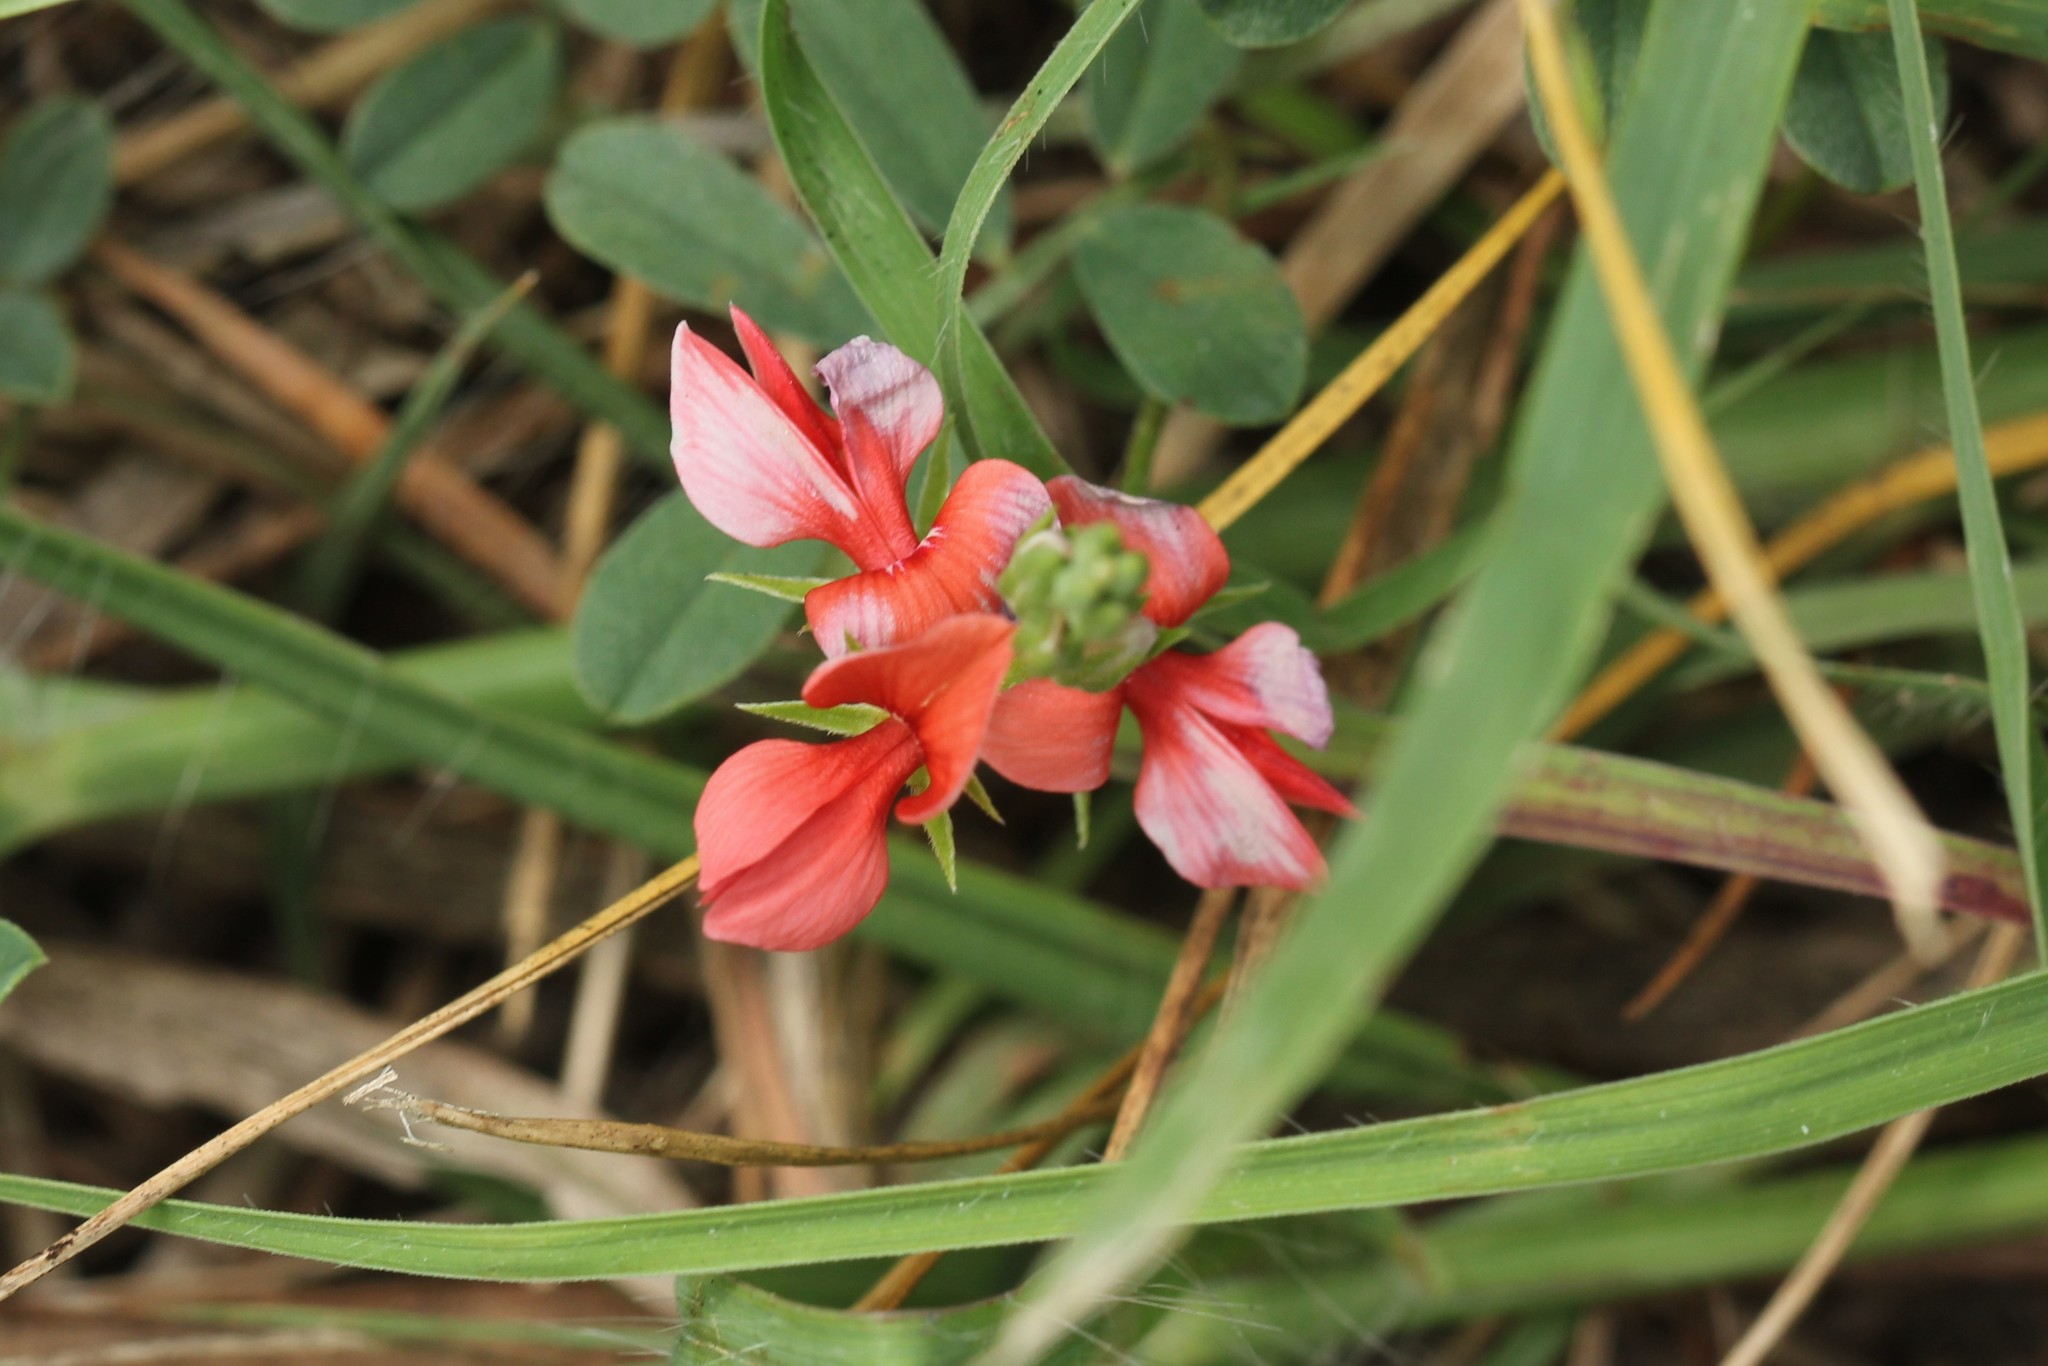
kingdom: Plantae
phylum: Tracheophyta
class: Magnoliopsida
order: Fabales
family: Fabaceae
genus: Indigofera
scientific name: Indigofera miniata
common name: Coast indigo
